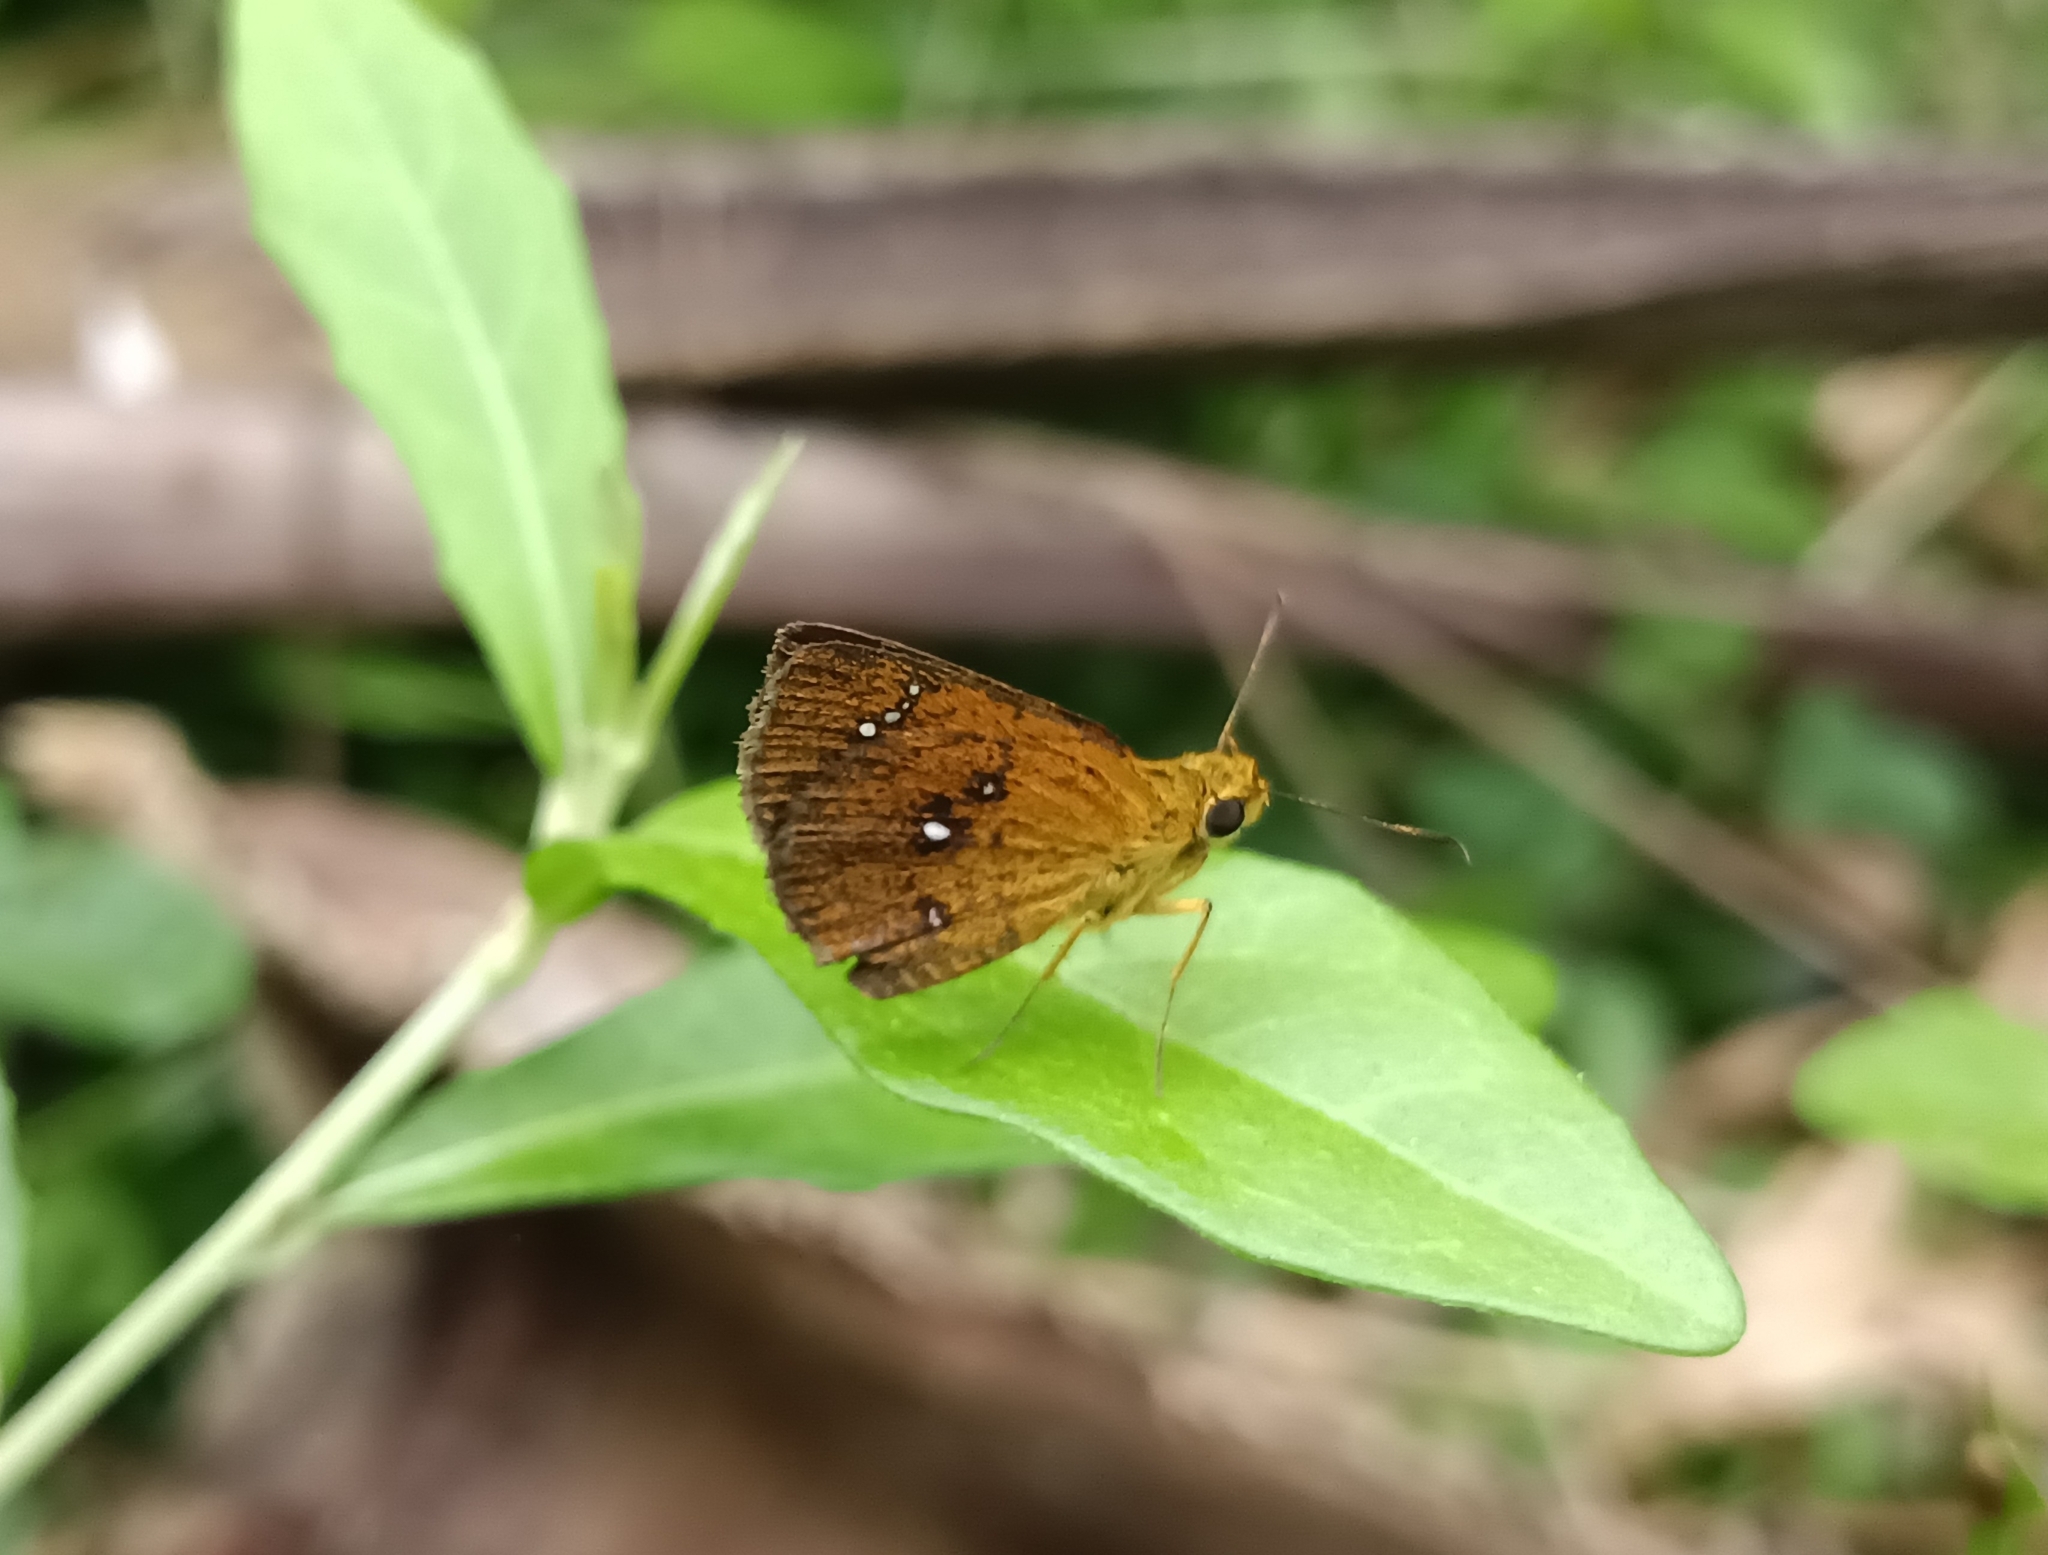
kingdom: Animalia
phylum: Arthropoda
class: Insecta
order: Lepidoptera
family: Hesperiidae
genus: Iambrix
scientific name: Iambrix salsala
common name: Chestnut bob
